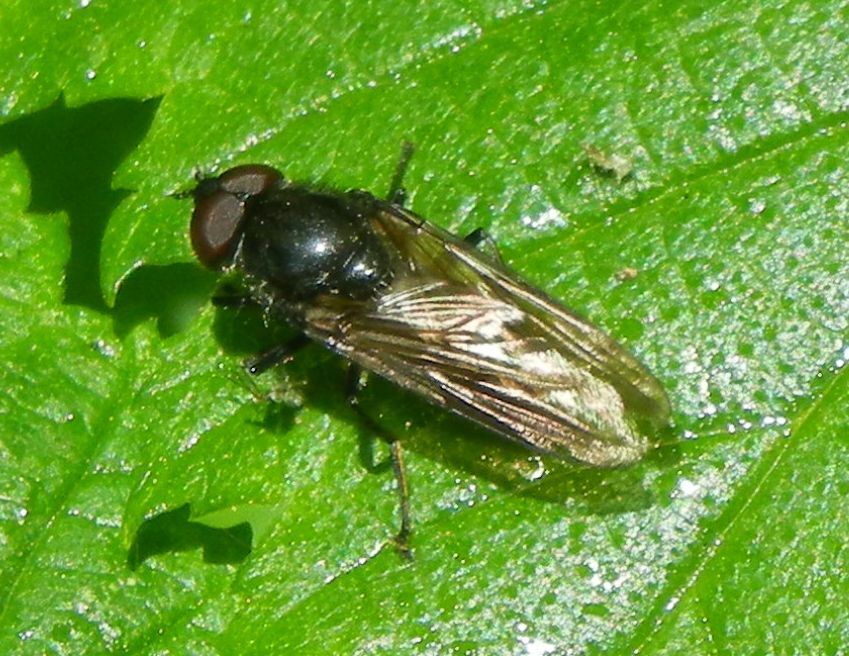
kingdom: Animalia
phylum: Arthropoda
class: Insecta
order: Diptera
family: Syrphidae
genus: Cheilosia
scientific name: Cheilosia variabilis
